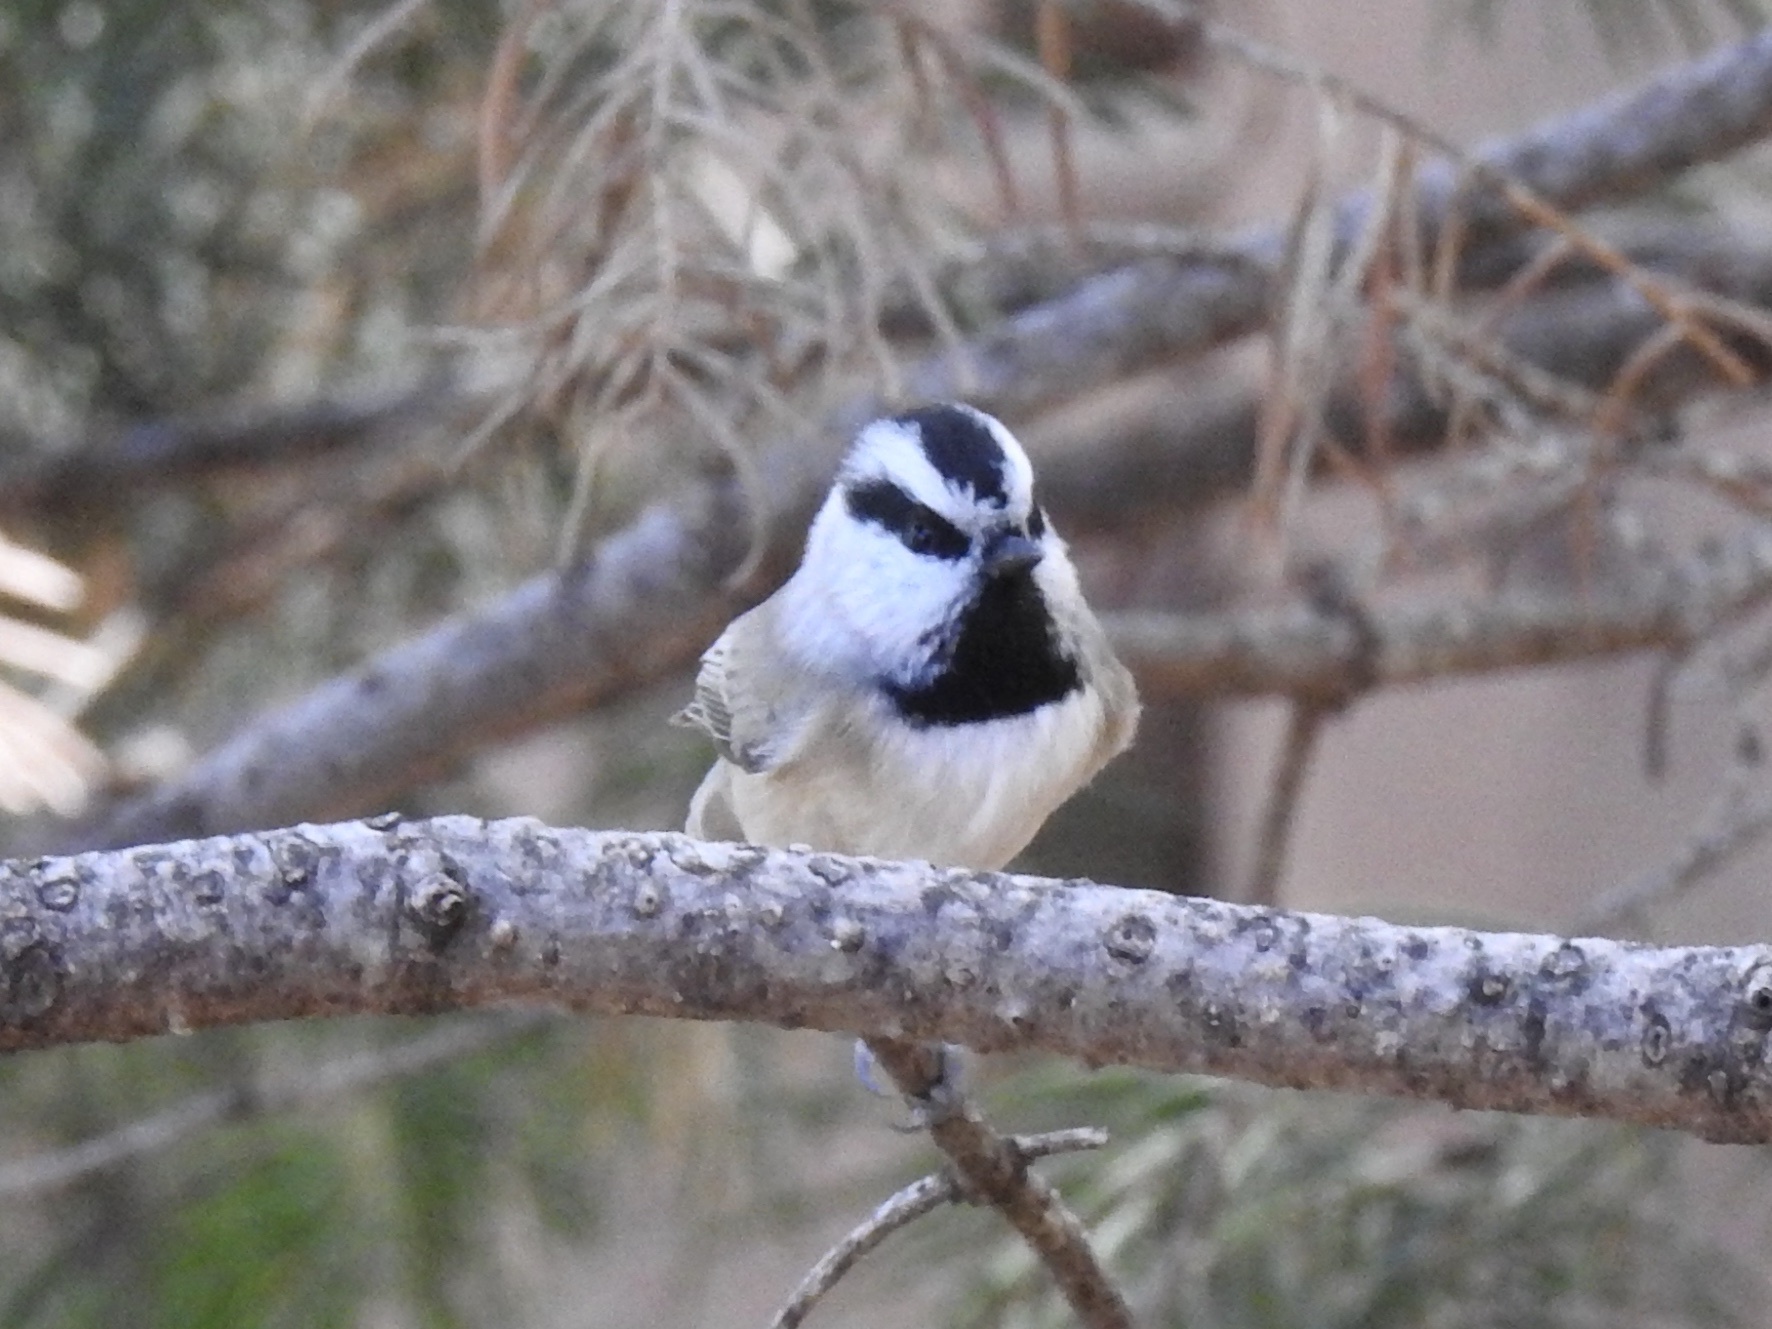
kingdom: Animalia
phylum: Chordata
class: Aves
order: Passeriformes
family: Paridae
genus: Poecile
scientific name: Poecile gambeli
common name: Mountain chickadee
